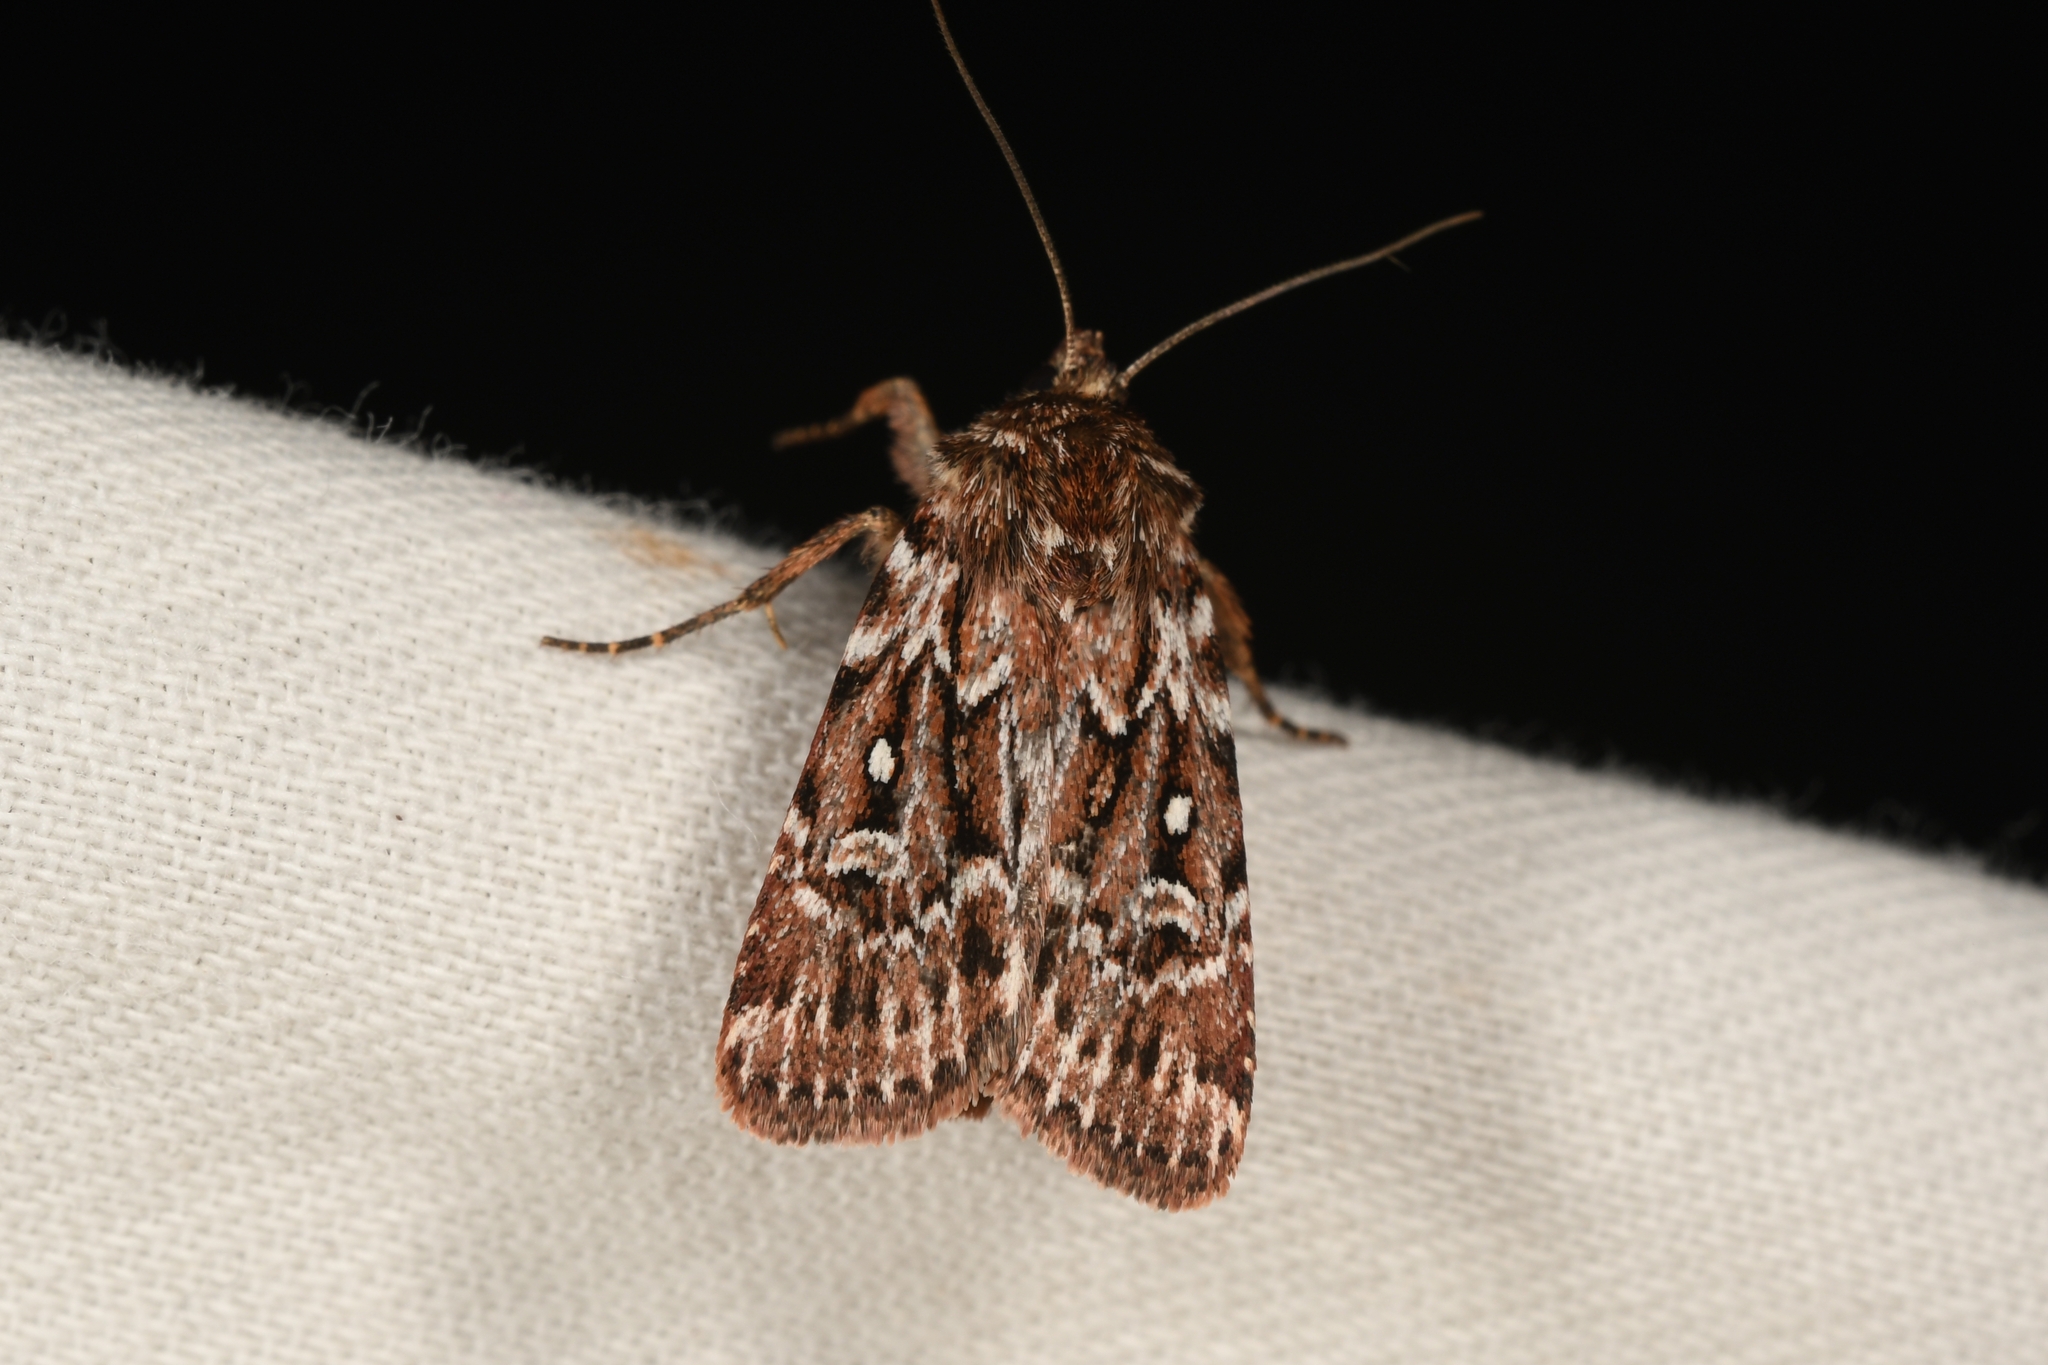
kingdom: Animalia
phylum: Arthropoda
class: Insecta
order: Lepidoptera
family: Noctuidae
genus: Lycophotia
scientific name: Lycophotia porphyrea
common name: True lover's knot
